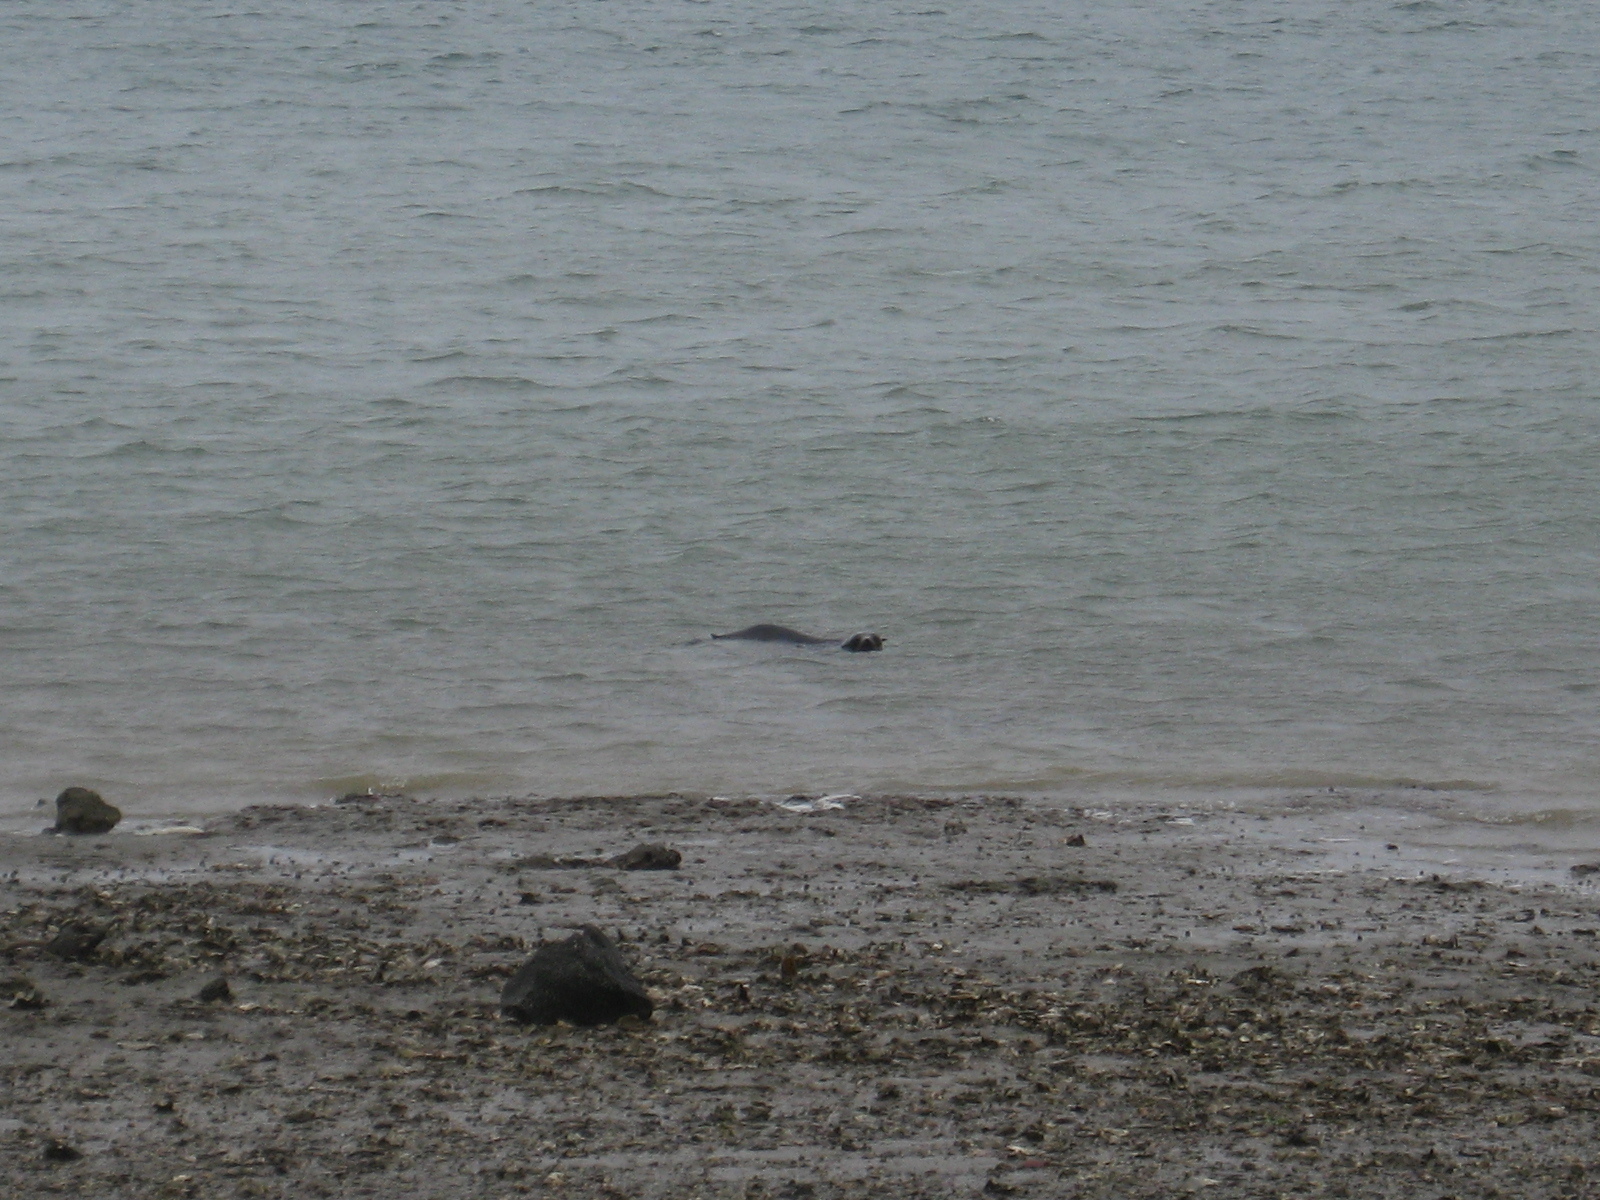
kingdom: Animalia
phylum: Chordata
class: Mammalia
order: Carnivora
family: Otariidae
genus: Arctocephalus
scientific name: Arctocephalus forsteri
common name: New zealand fur seal
